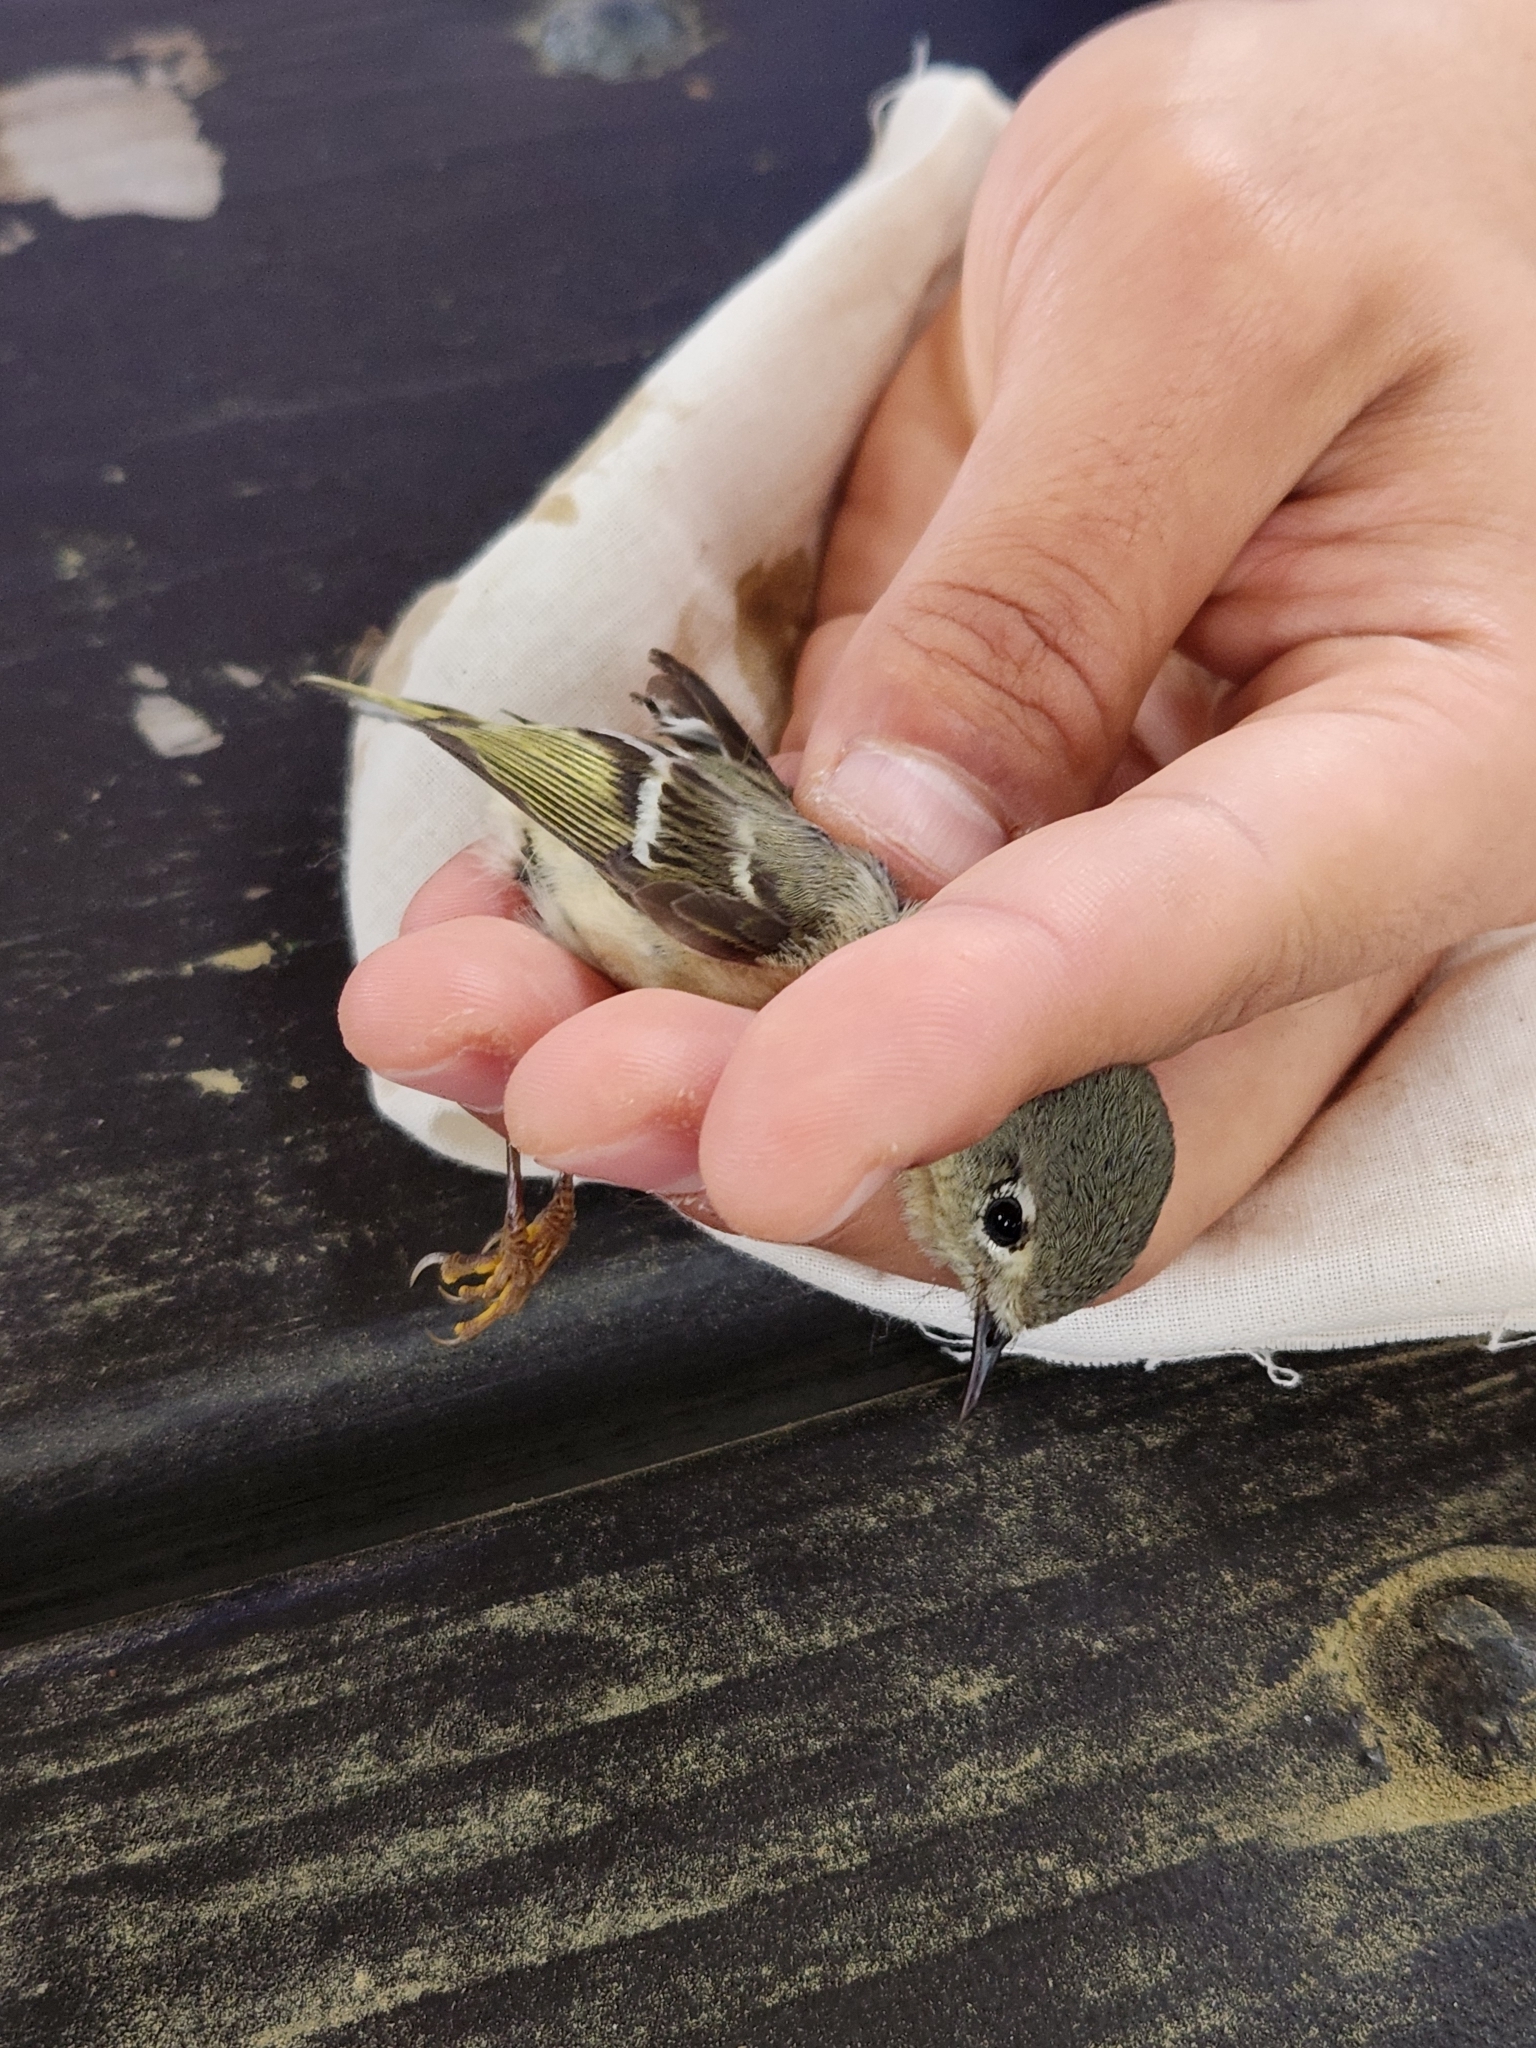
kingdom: Animalia
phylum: Chordata
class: Aves
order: Passeriformes
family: Regulidae
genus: Regulus
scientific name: Regulus calendula
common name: Ruby-crowned kinglet
